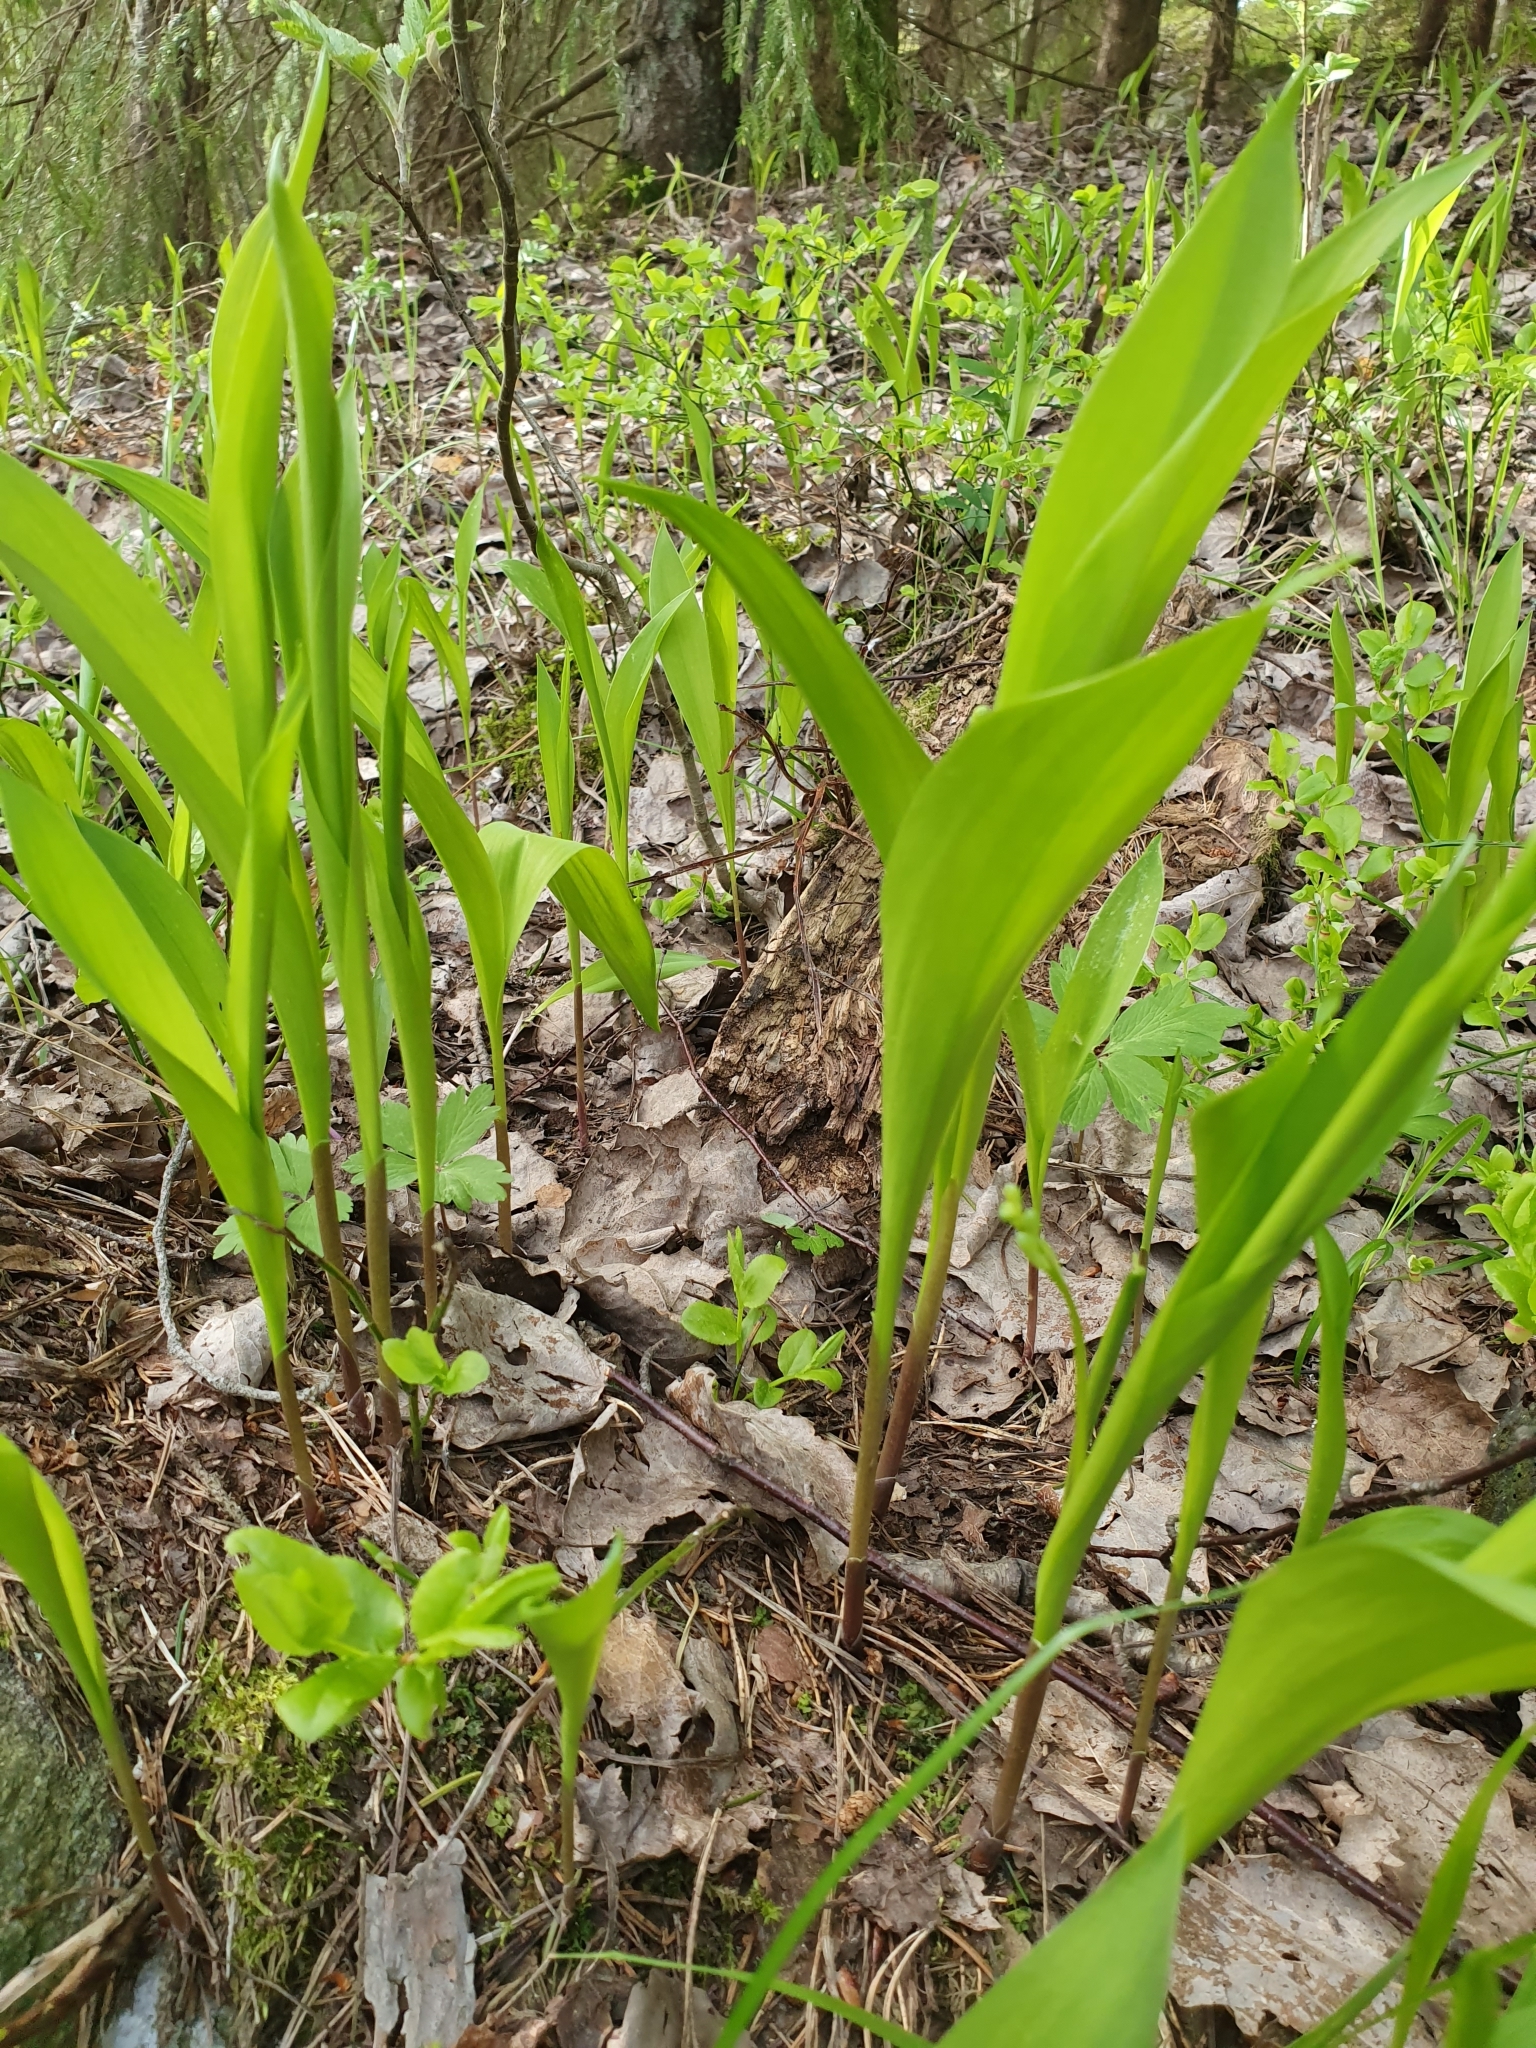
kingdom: Plantae
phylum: Tracheophyta
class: Liliopsida
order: Asparagales
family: Asparagaceae
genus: Convallaria
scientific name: Convallaria majalis
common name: Lily-of-the-valley
